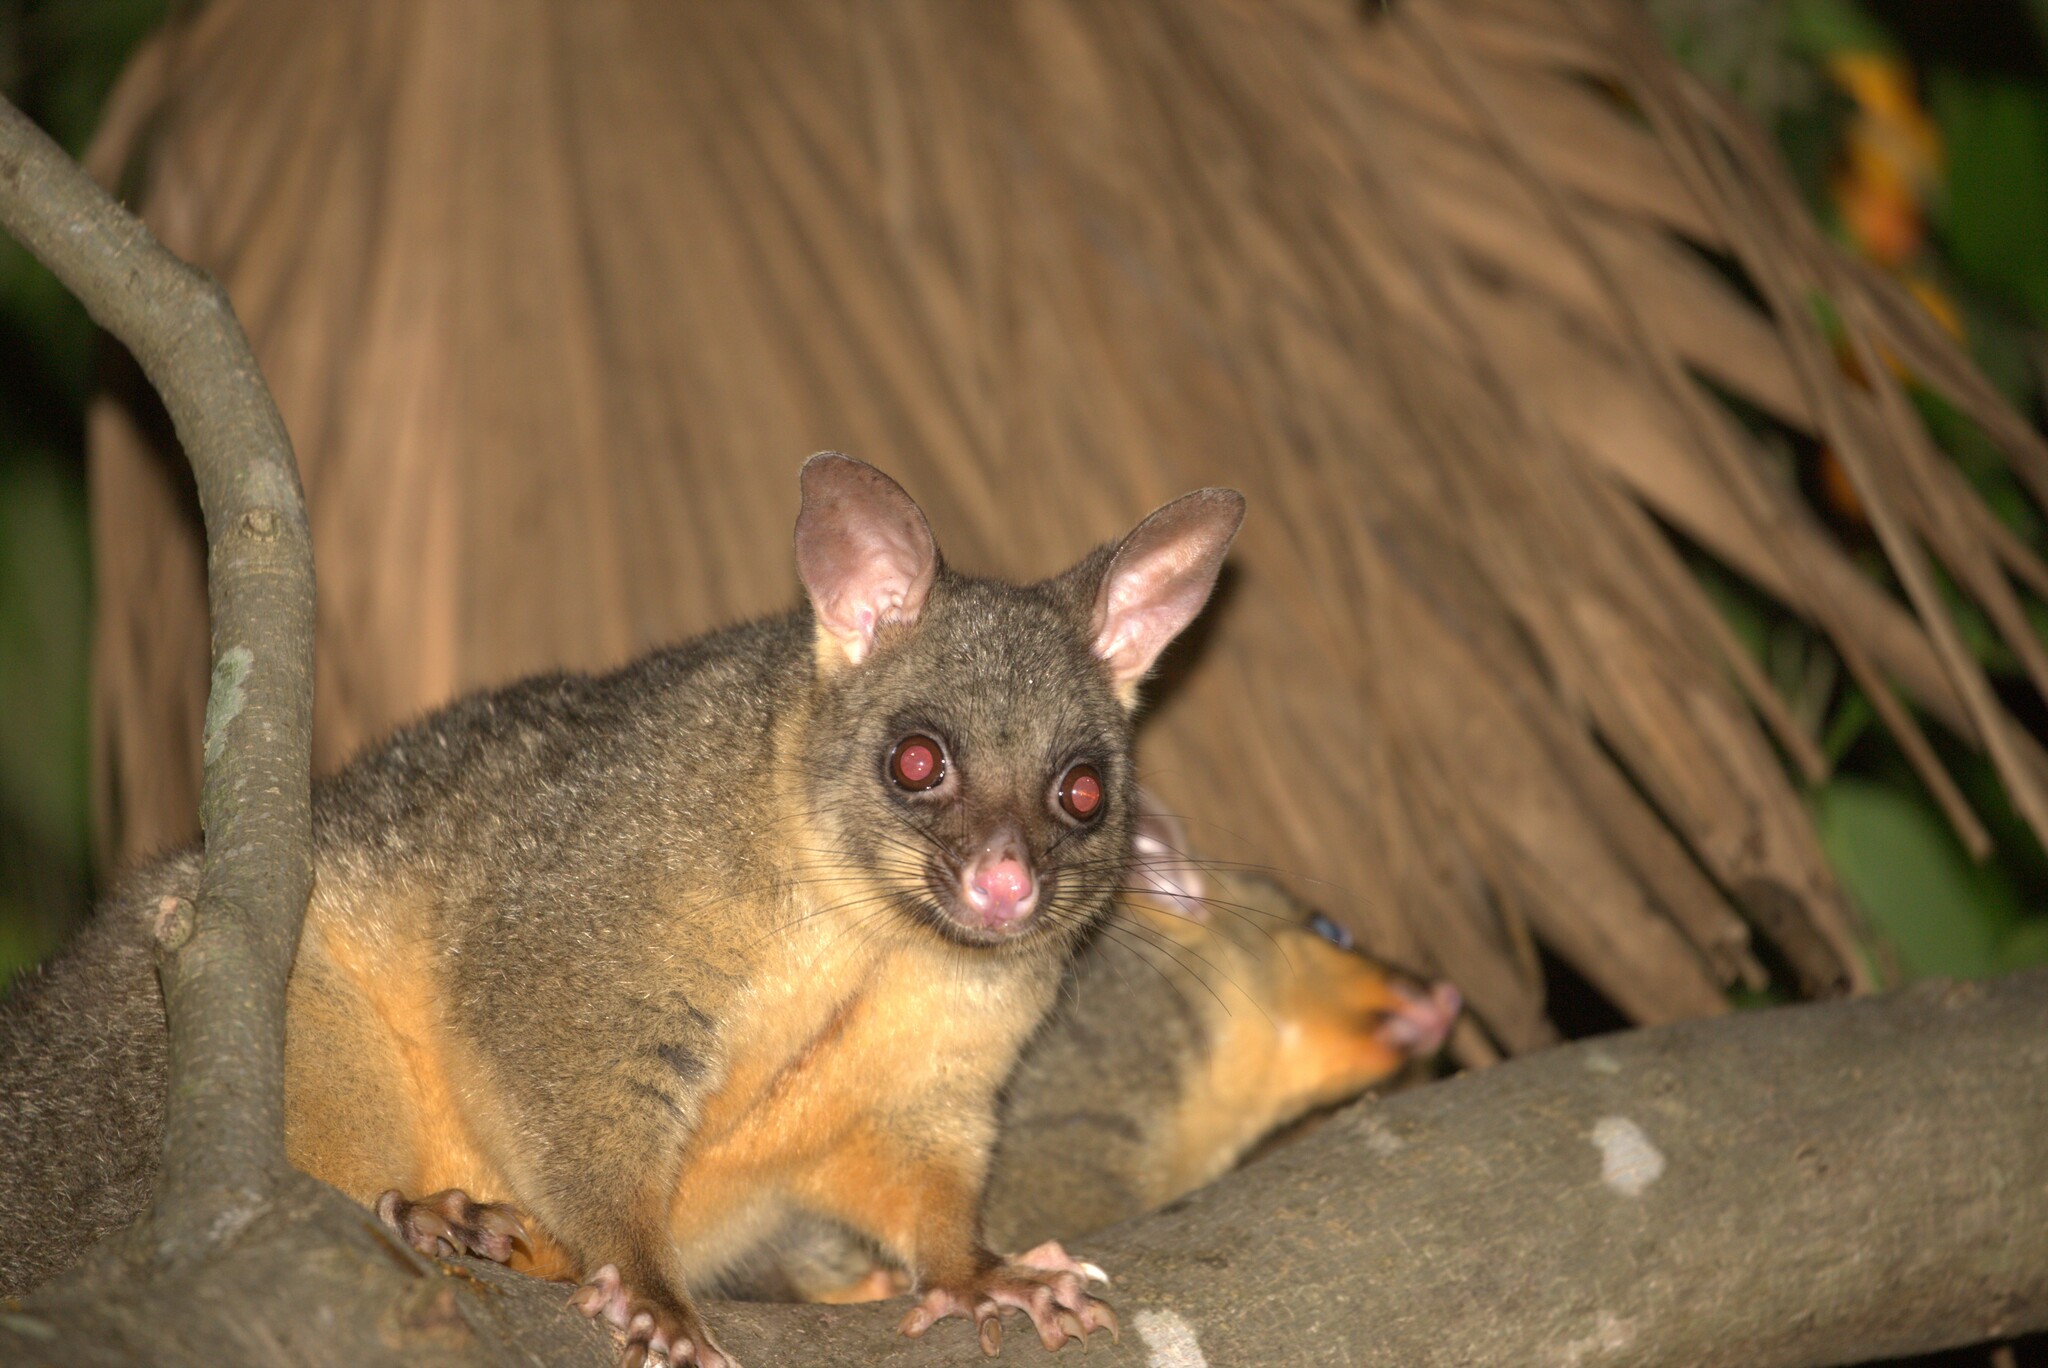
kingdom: Animalia
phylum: Chordata
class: Mammalia
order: Diprotodontia
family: Phalangeridae
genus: Trichosurus
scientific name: Trichosurus vulpecula
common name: Common brushtail
